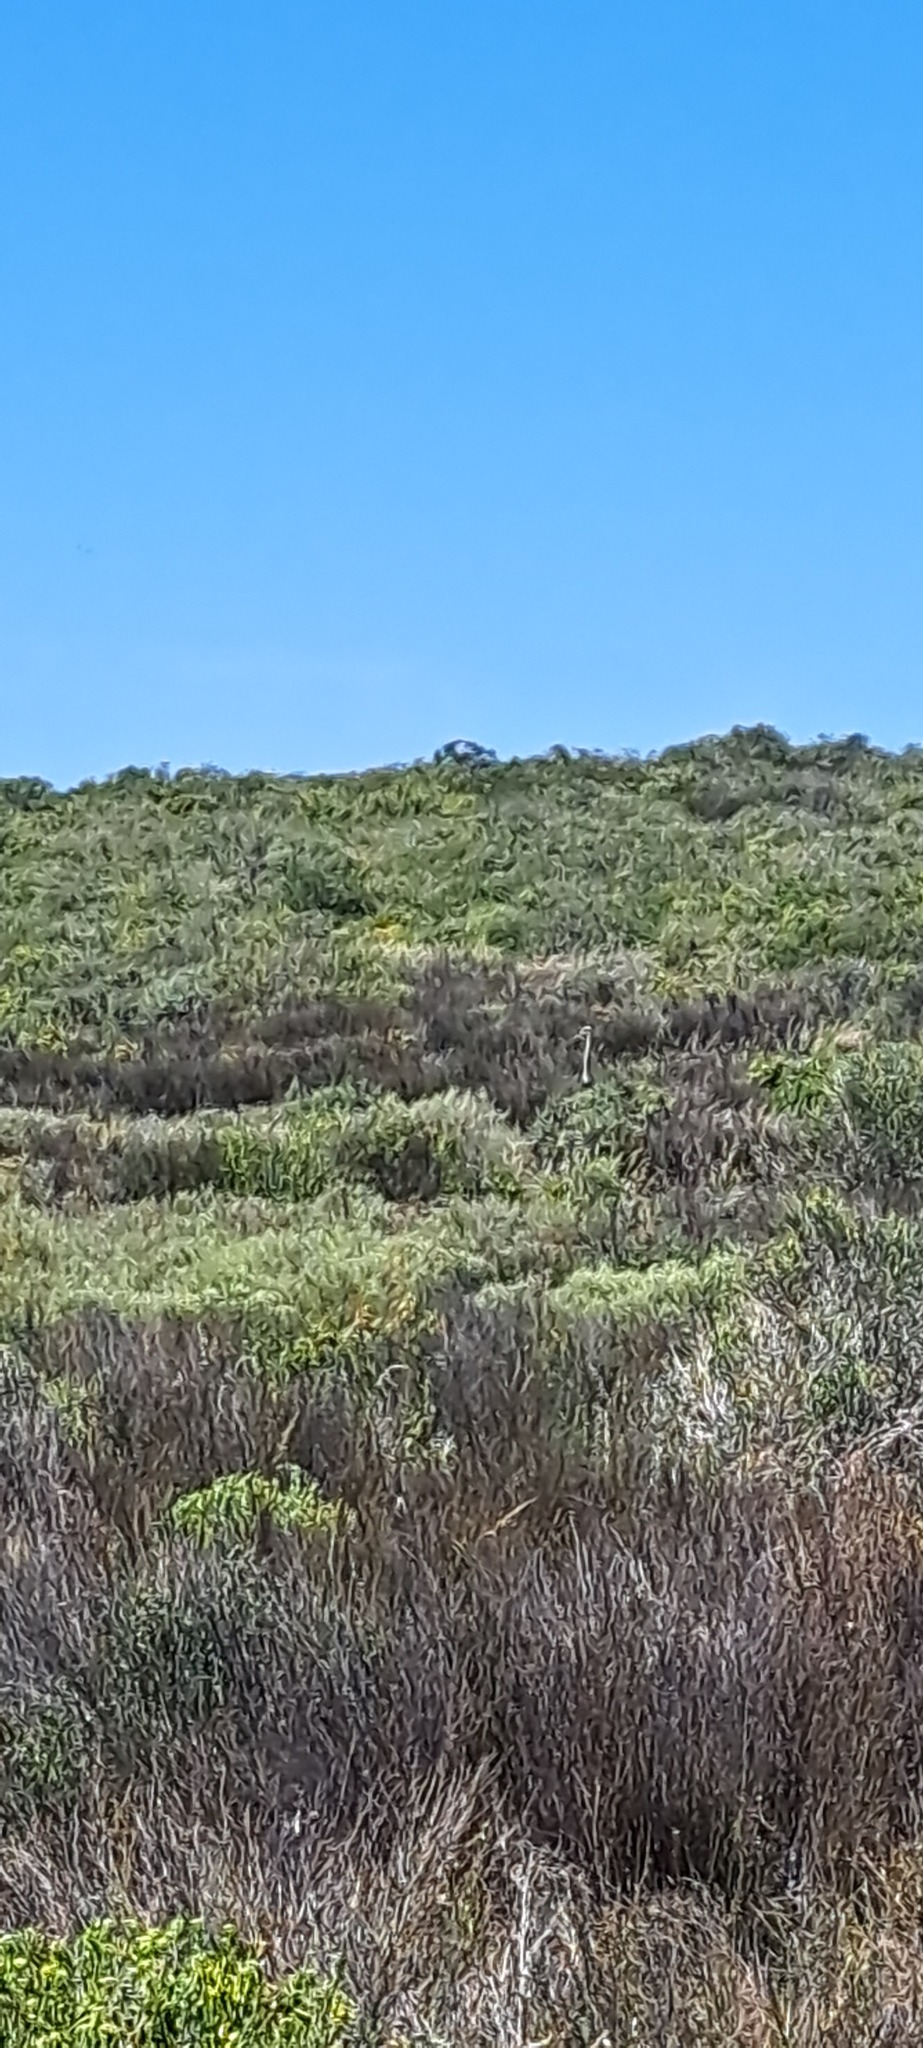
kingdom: Animalia
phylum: Chordata
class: Aves
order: Struthioniformes
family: Struthionidae
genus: Struthio
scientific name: Struthio camelus
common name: Common ostrich
